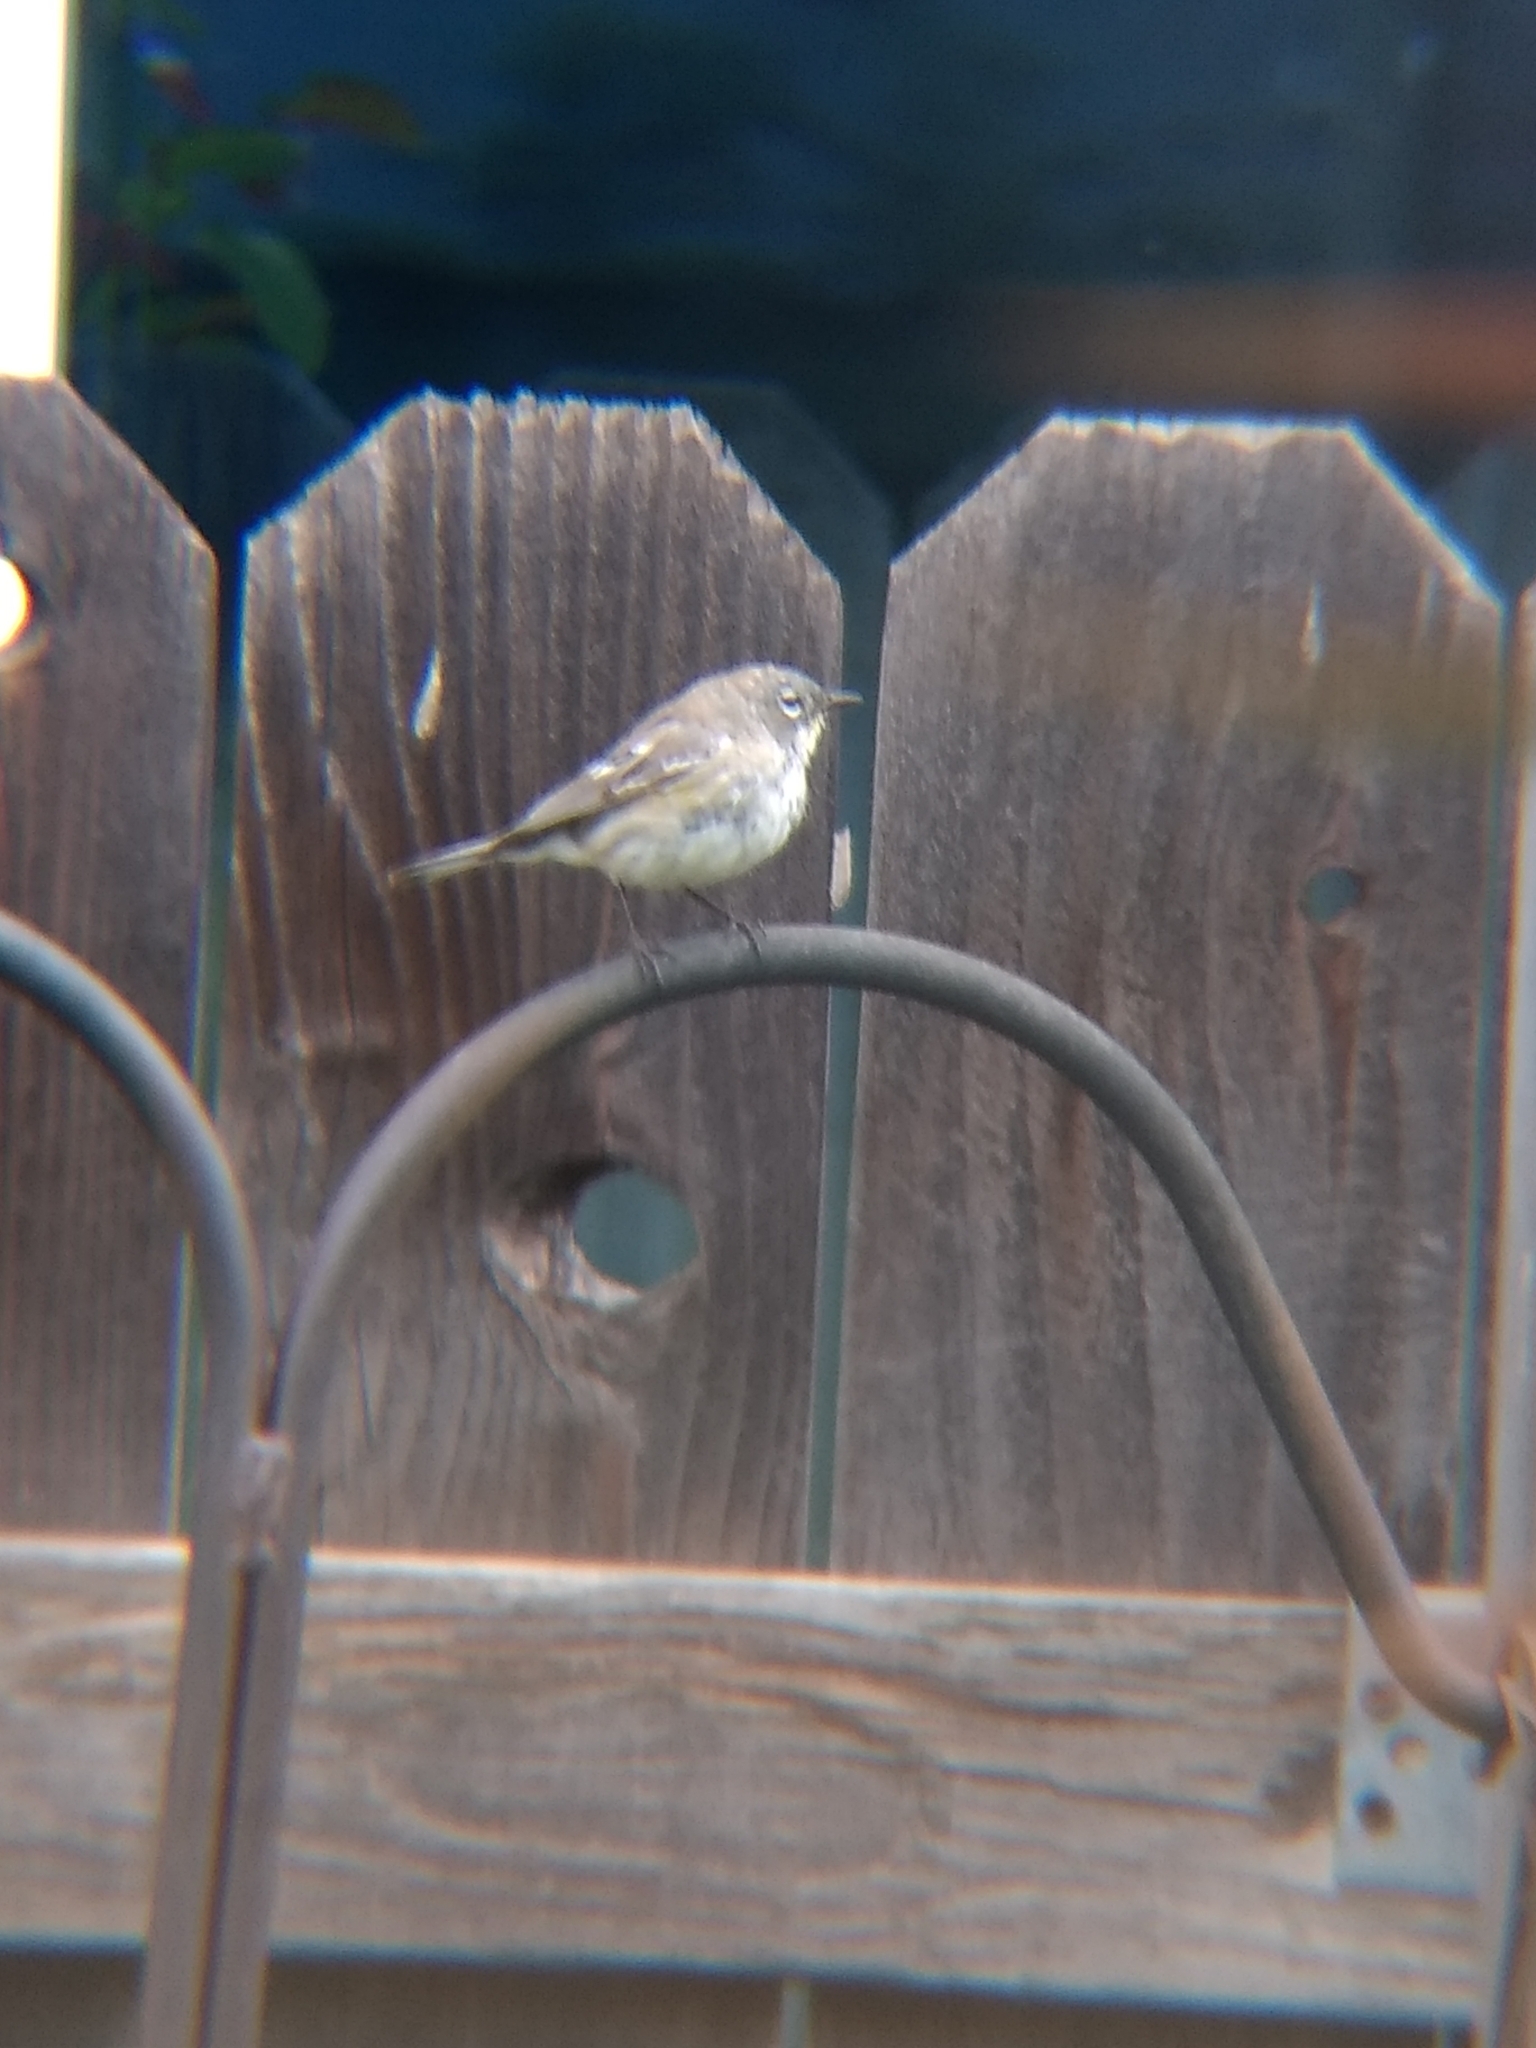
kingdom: Animalia
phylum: Chordata
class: Aves
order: Passeriformes
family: Parulidae
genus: Setophaga
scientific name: Setophaga auduboni
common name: Audubon's warbler
